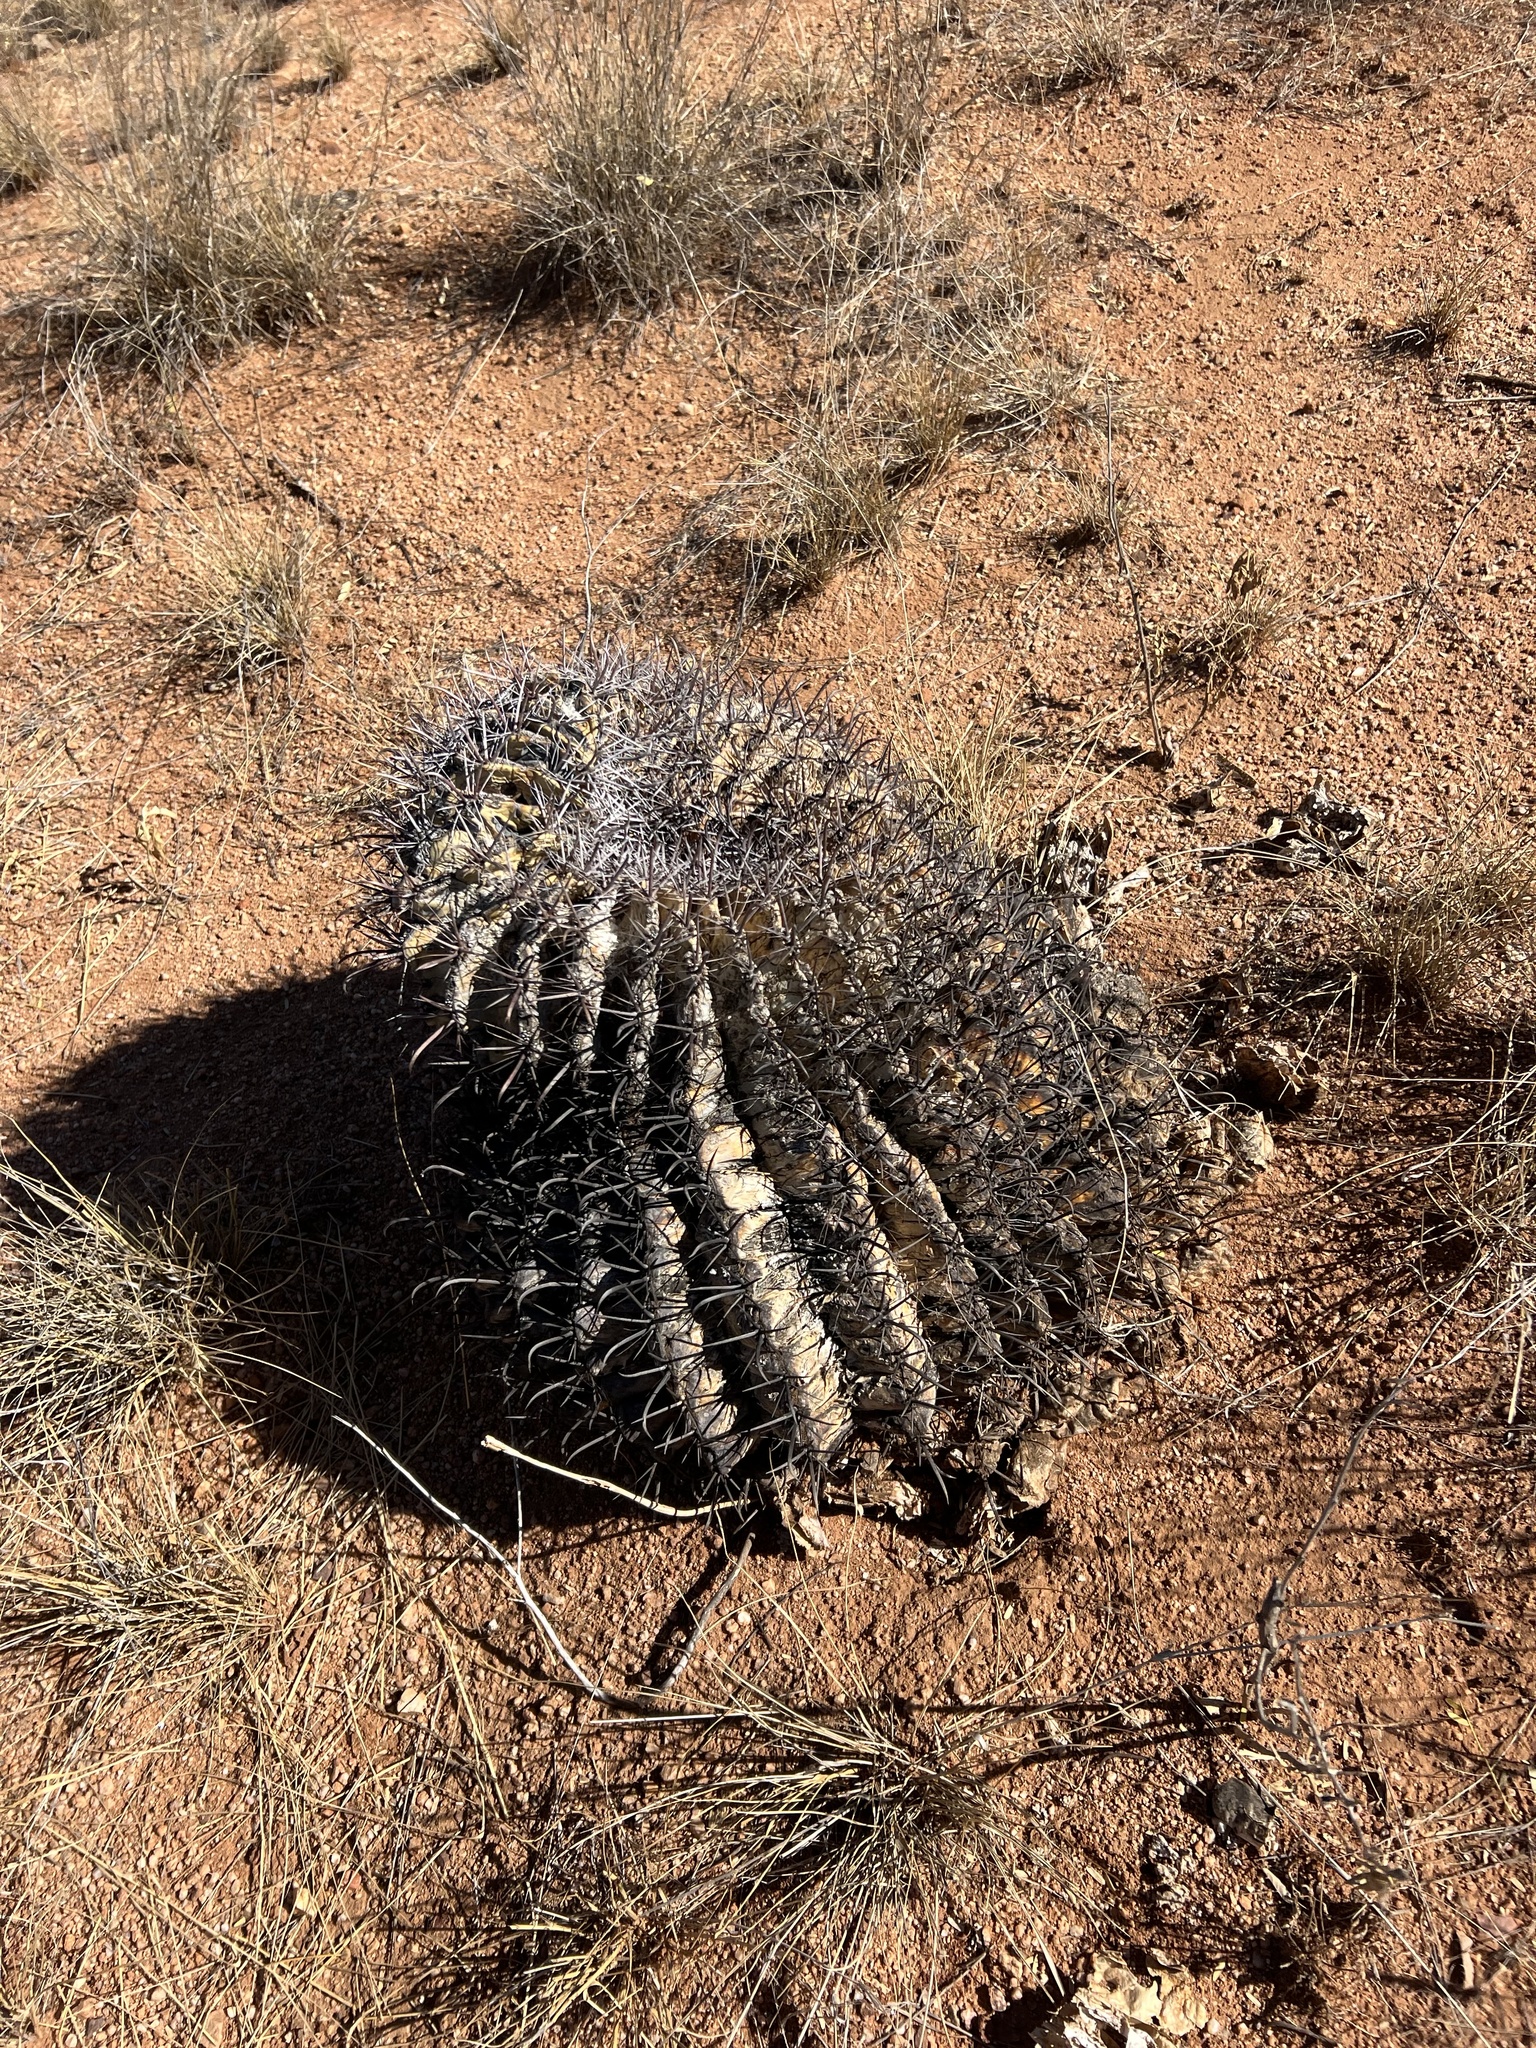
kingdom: Plantae
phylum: Tracheophyta
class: Magnoliopsida
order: Caryophyllales
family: Cactaceae
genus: Ferocactus
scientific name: Ferocactus wislizeni
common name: Candy barrel cactus
